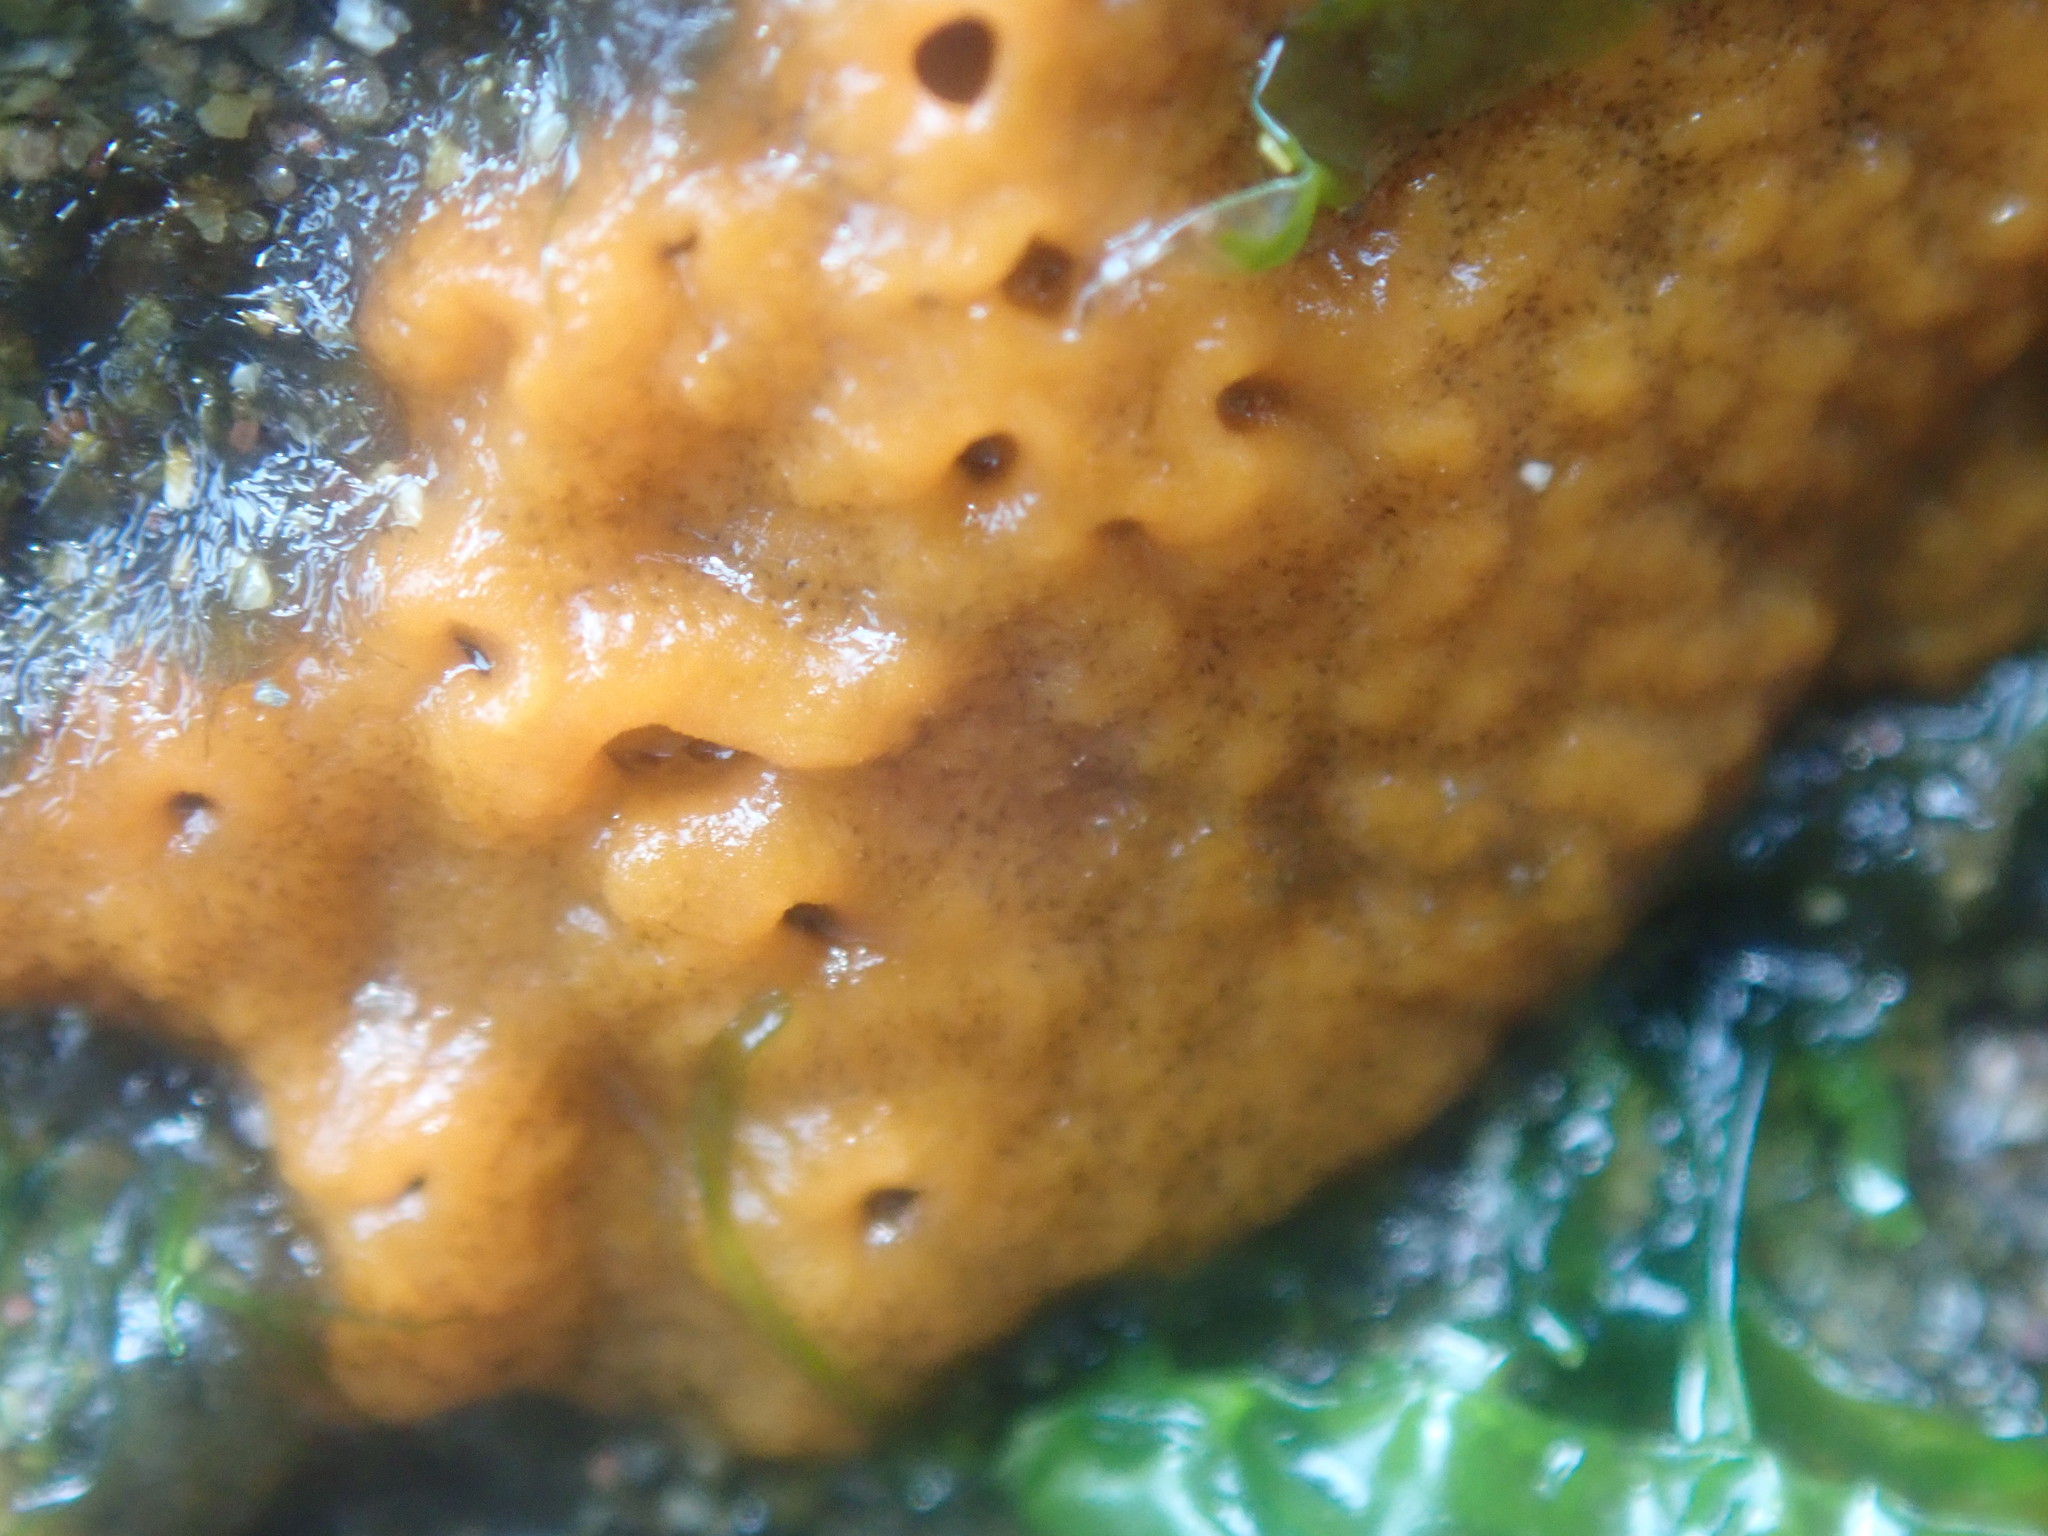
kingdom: Animalia
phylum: Porifera
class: Demospongiae
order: Suberitida
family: Halichondriidae
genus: Hymeniacidon
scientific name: Hymeniacidon perlevis
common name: Crumb-of-bread sponge
